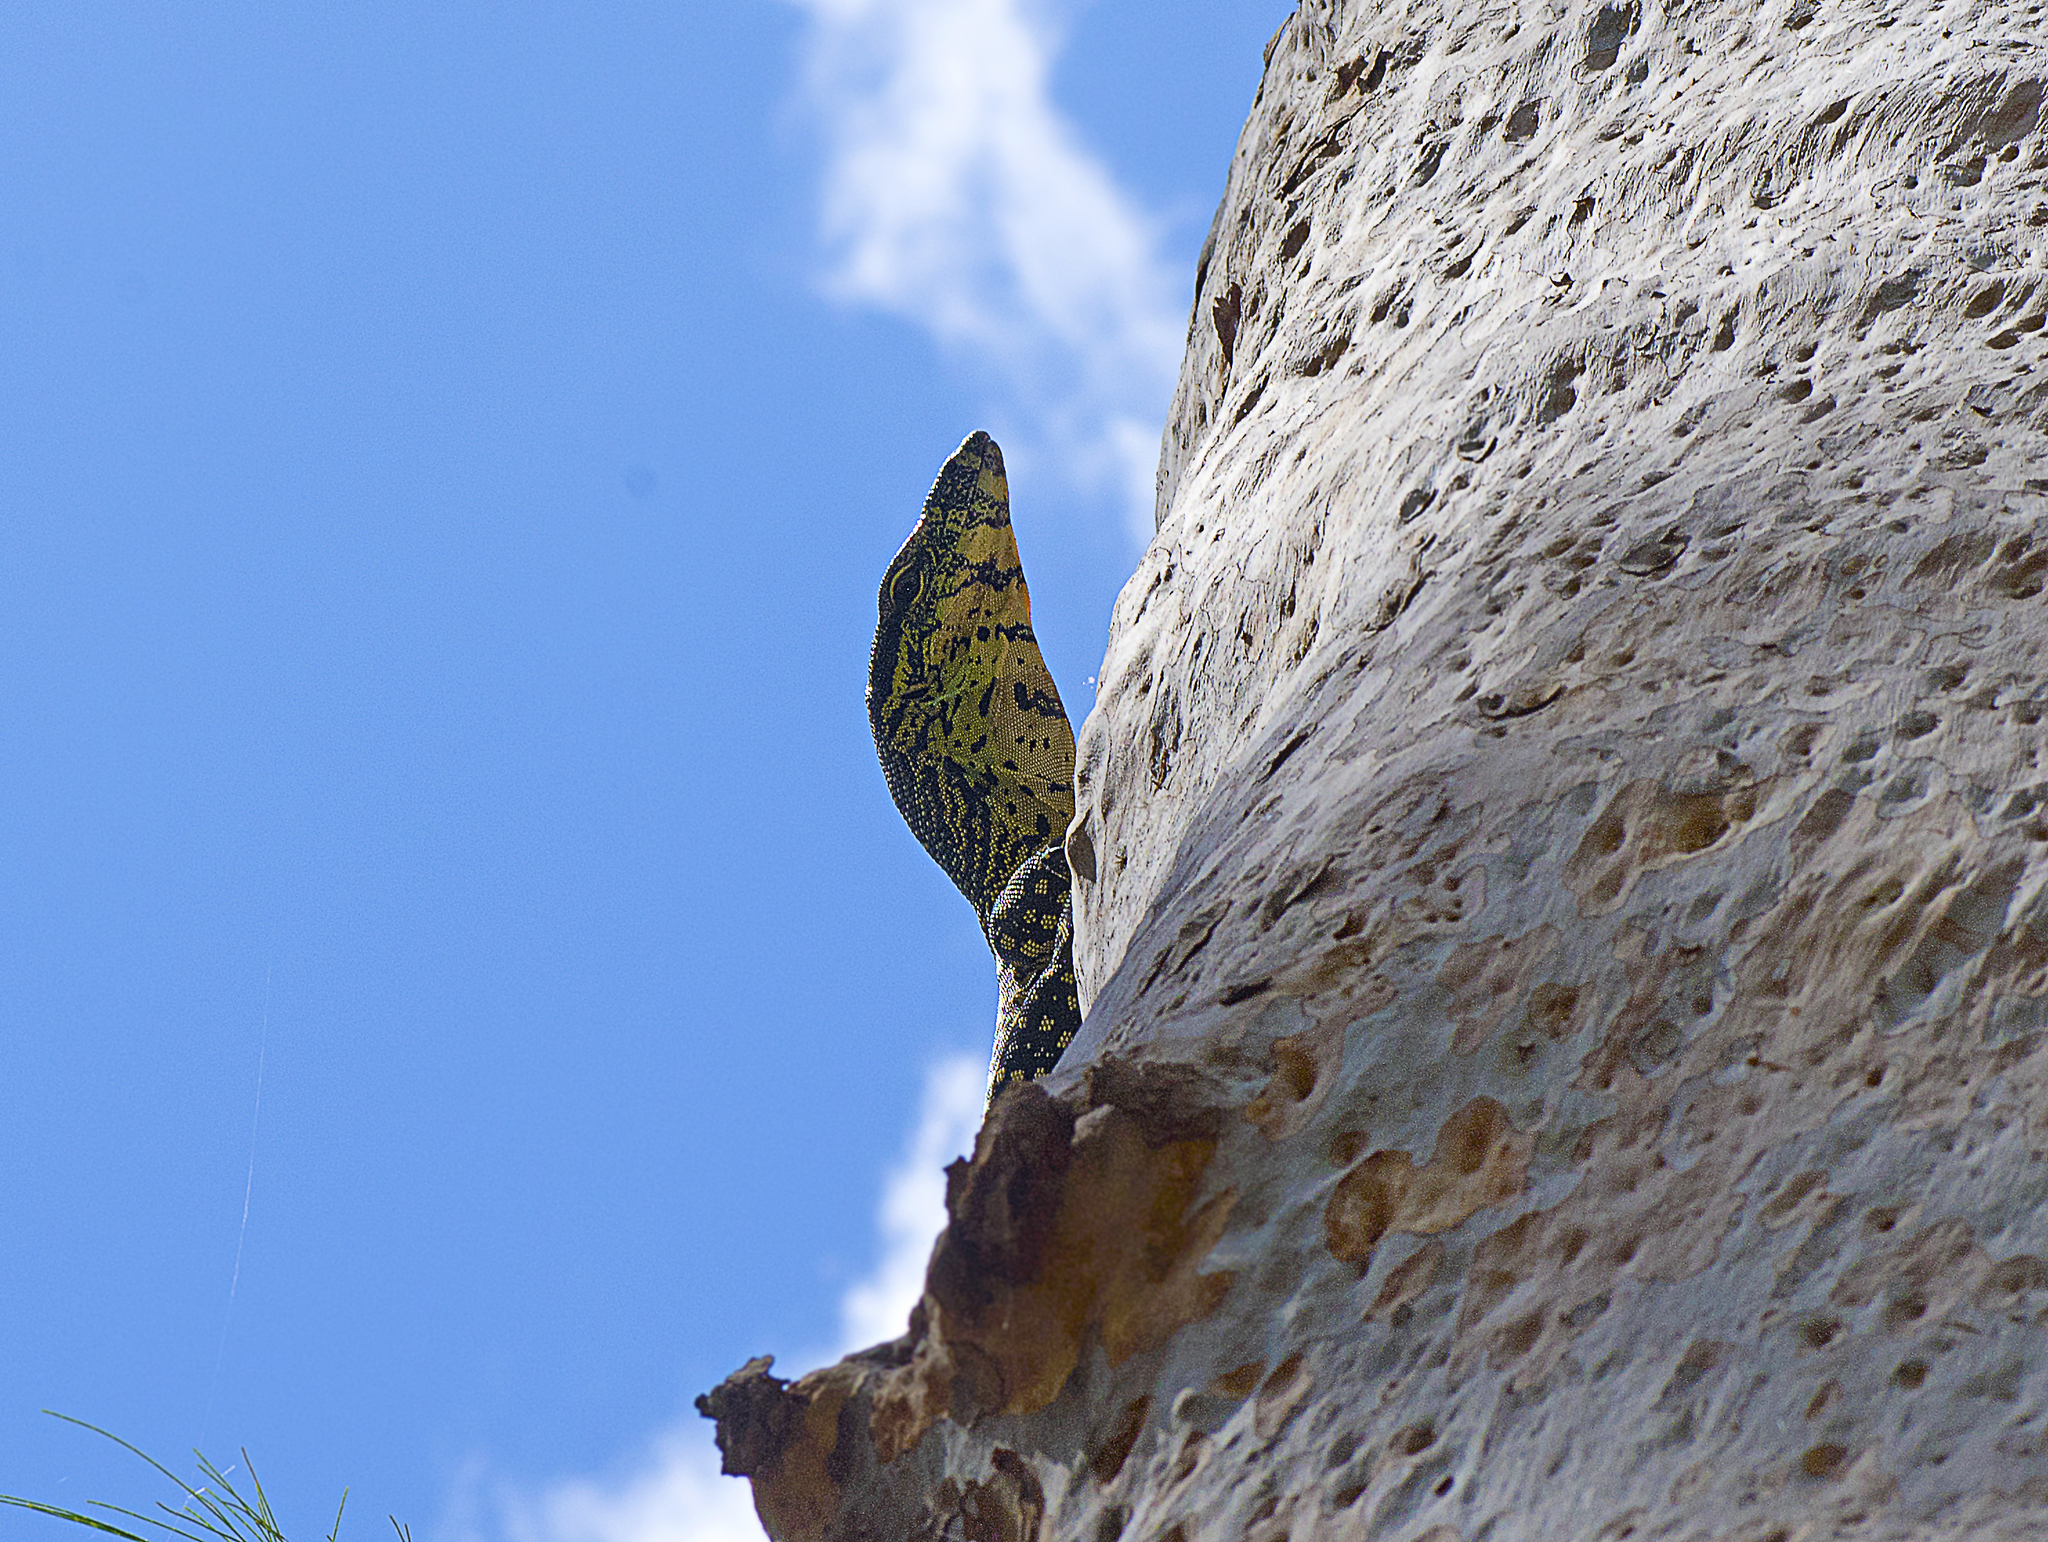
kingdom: Animalia
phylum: Chordata
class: Squamata
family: Varanidae
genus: Varanus
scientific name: Varanus varius
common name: Lace monitor
